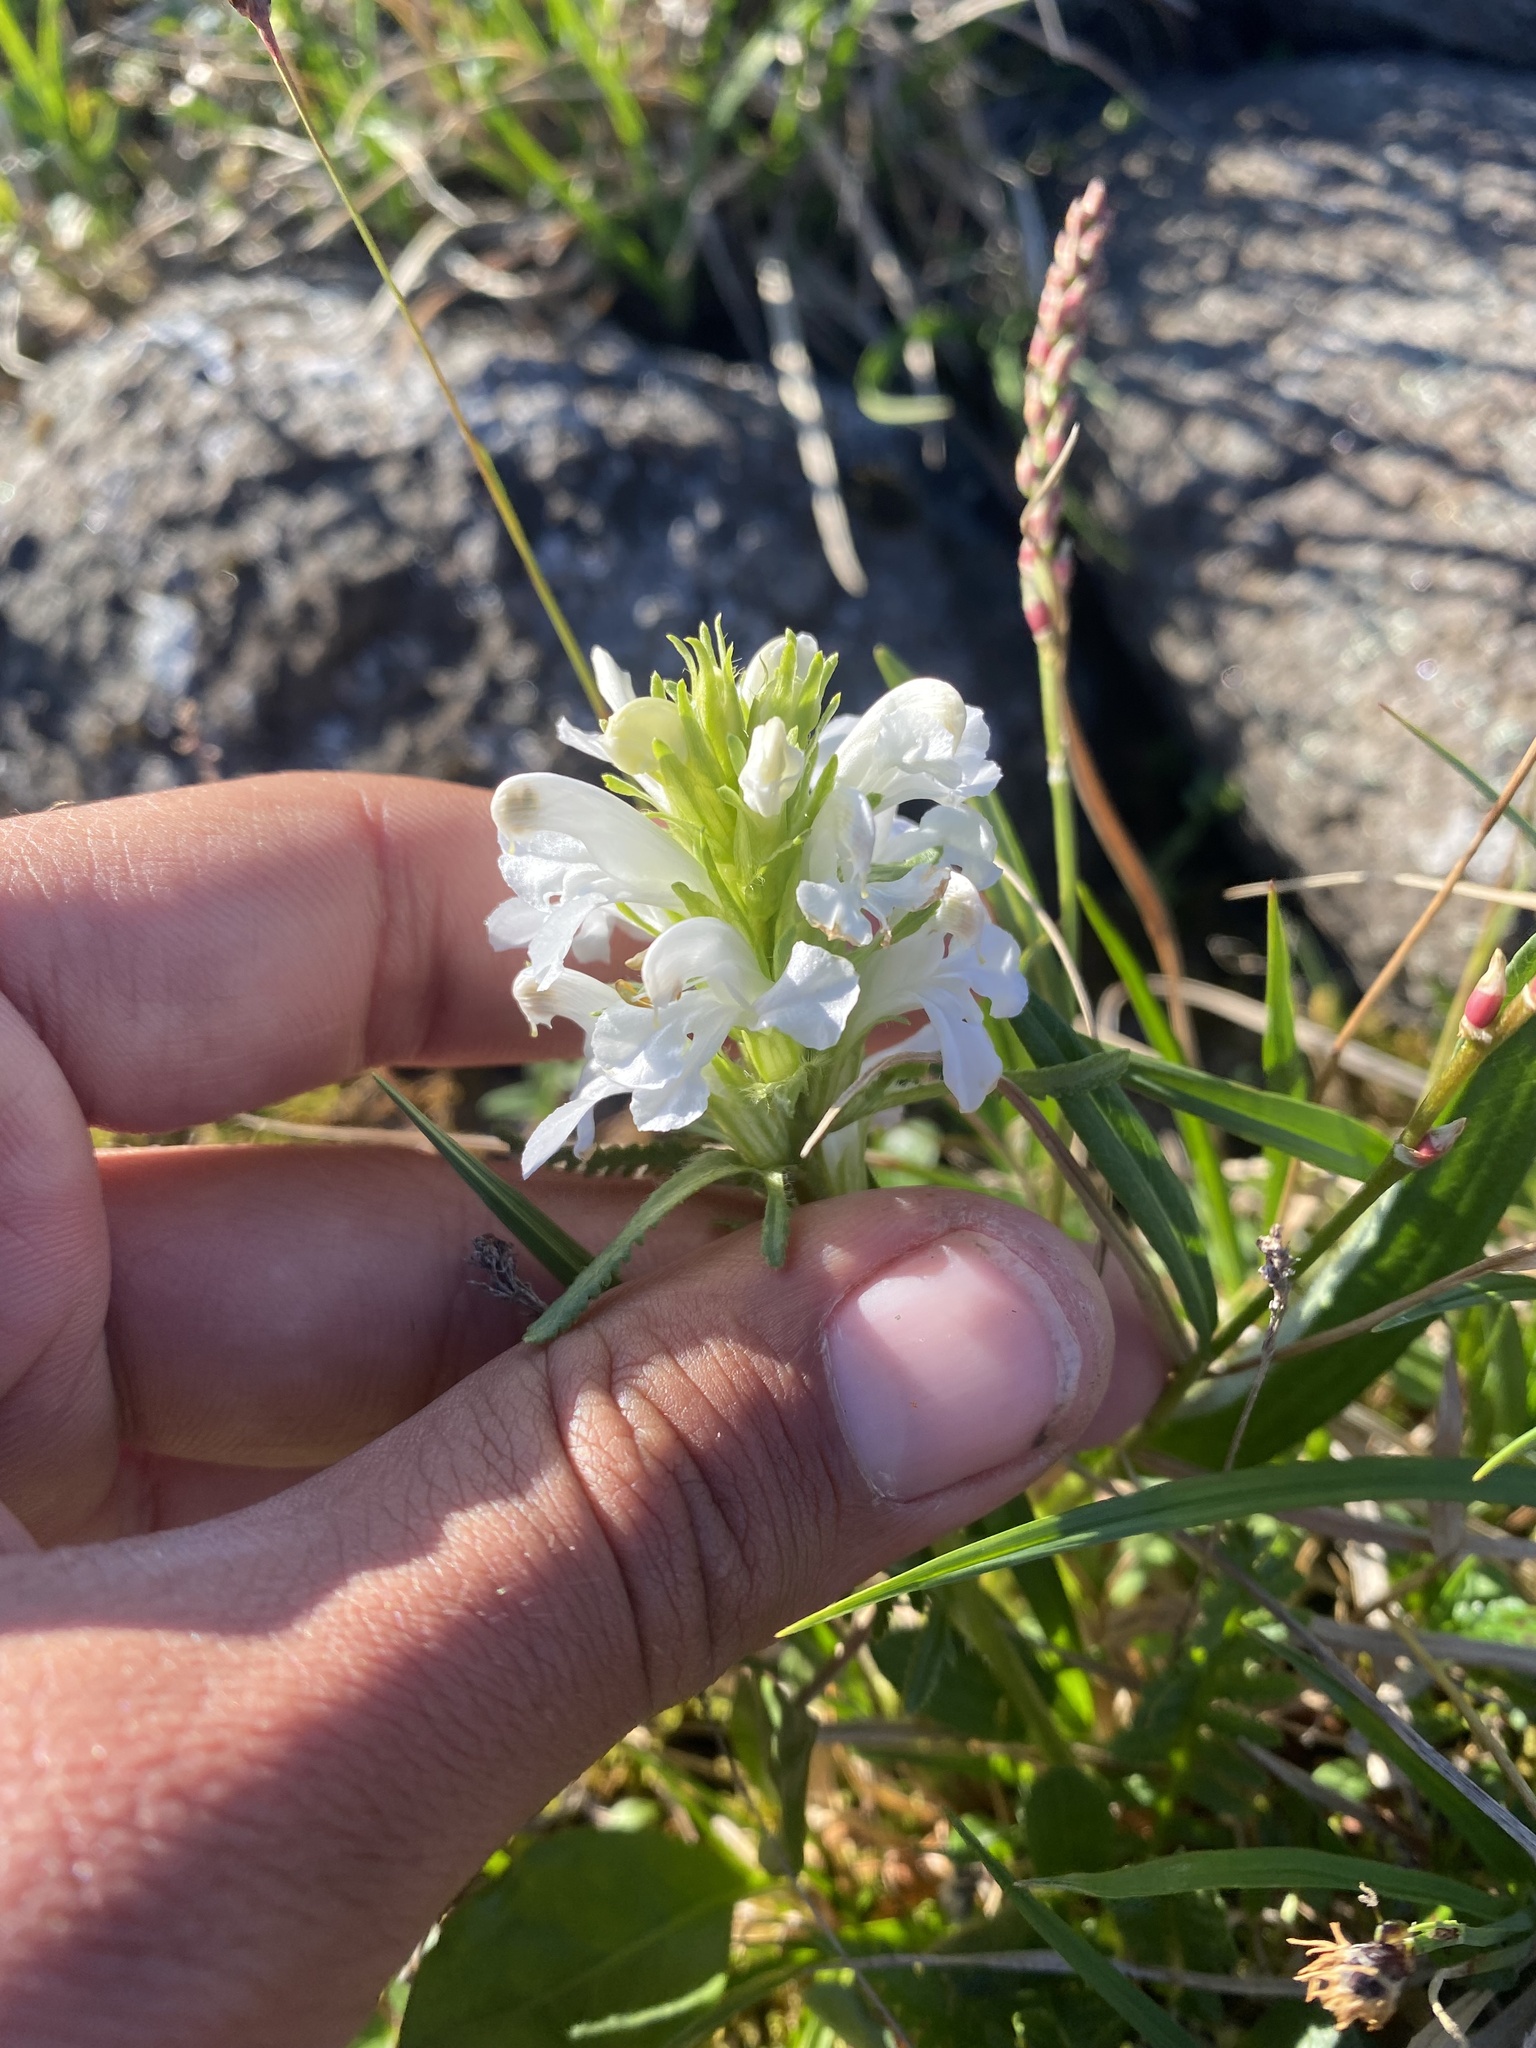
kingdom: Plantae
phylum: Tracheophyta
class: Magnoliopsida
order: Lamiales
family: Orobanchaceae
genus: Pedicularis
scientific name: Pedicularis sudetica
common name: Sudeten lousewort
